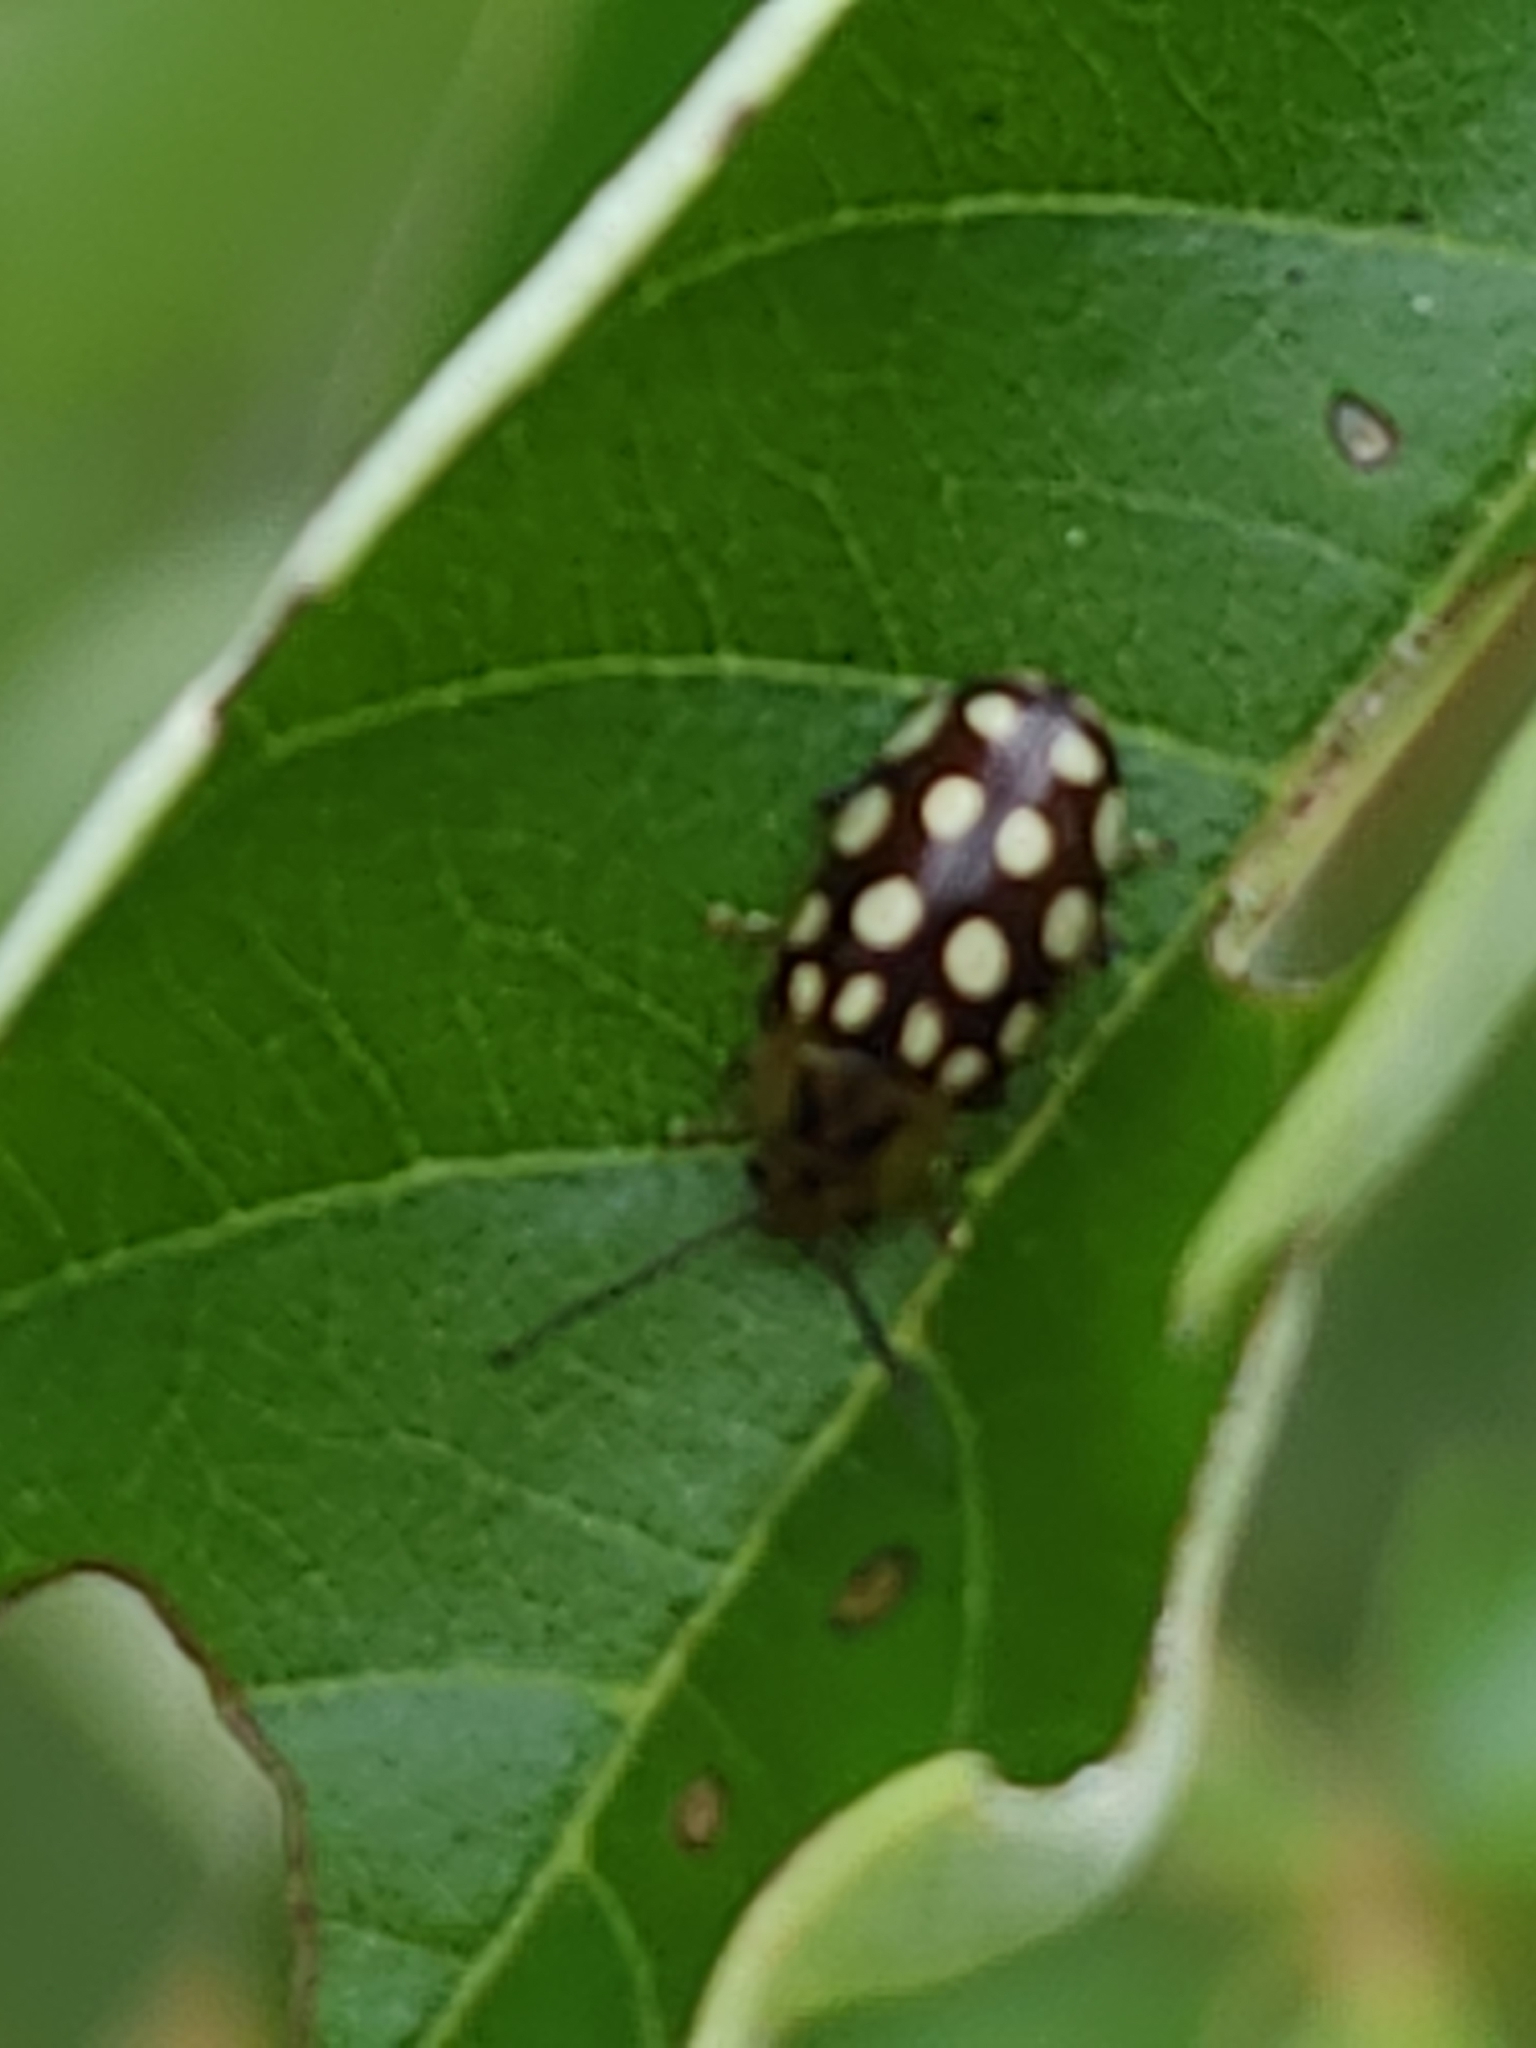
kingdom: Animalia
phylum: Arthropoda
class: Insecta
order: Coleoptera
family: Chrysomelidae
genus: Chalcolampra
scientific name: Chalcolampra octodecimguttata
